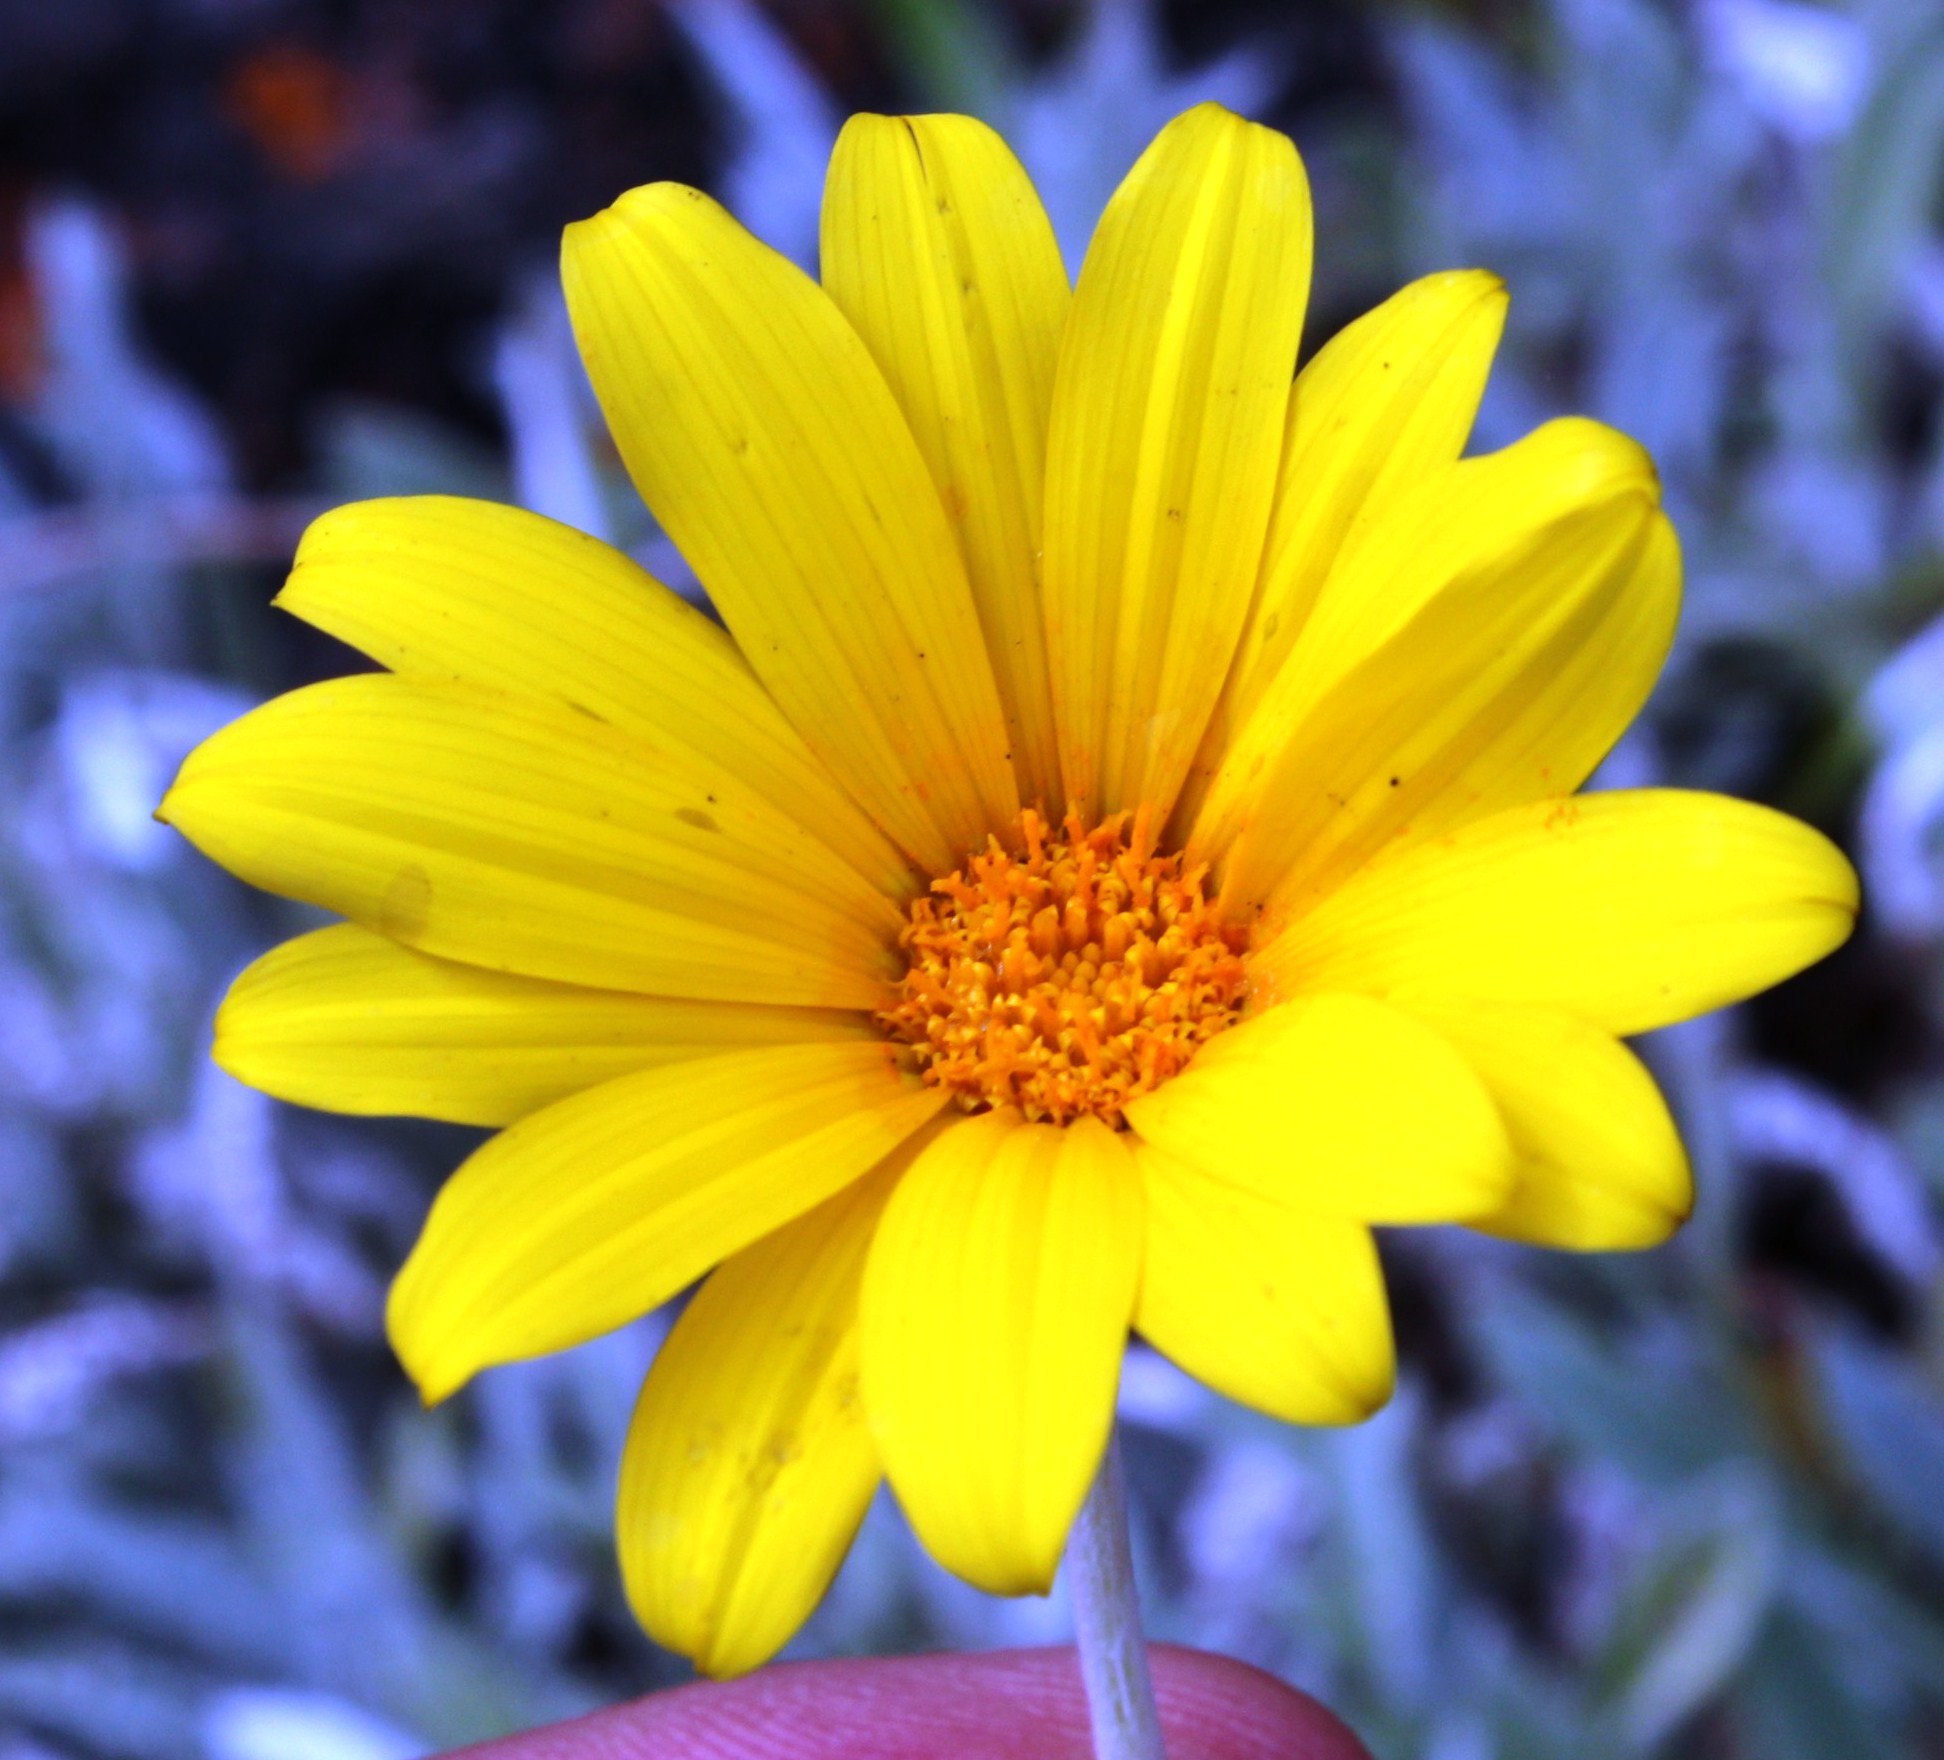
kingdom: Plantae
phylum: Tracheophyta
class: Magnoliopsida
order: Asterales
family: Asteraceae
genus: Gazania
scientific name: Gazania rigens
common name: Treasureflower
